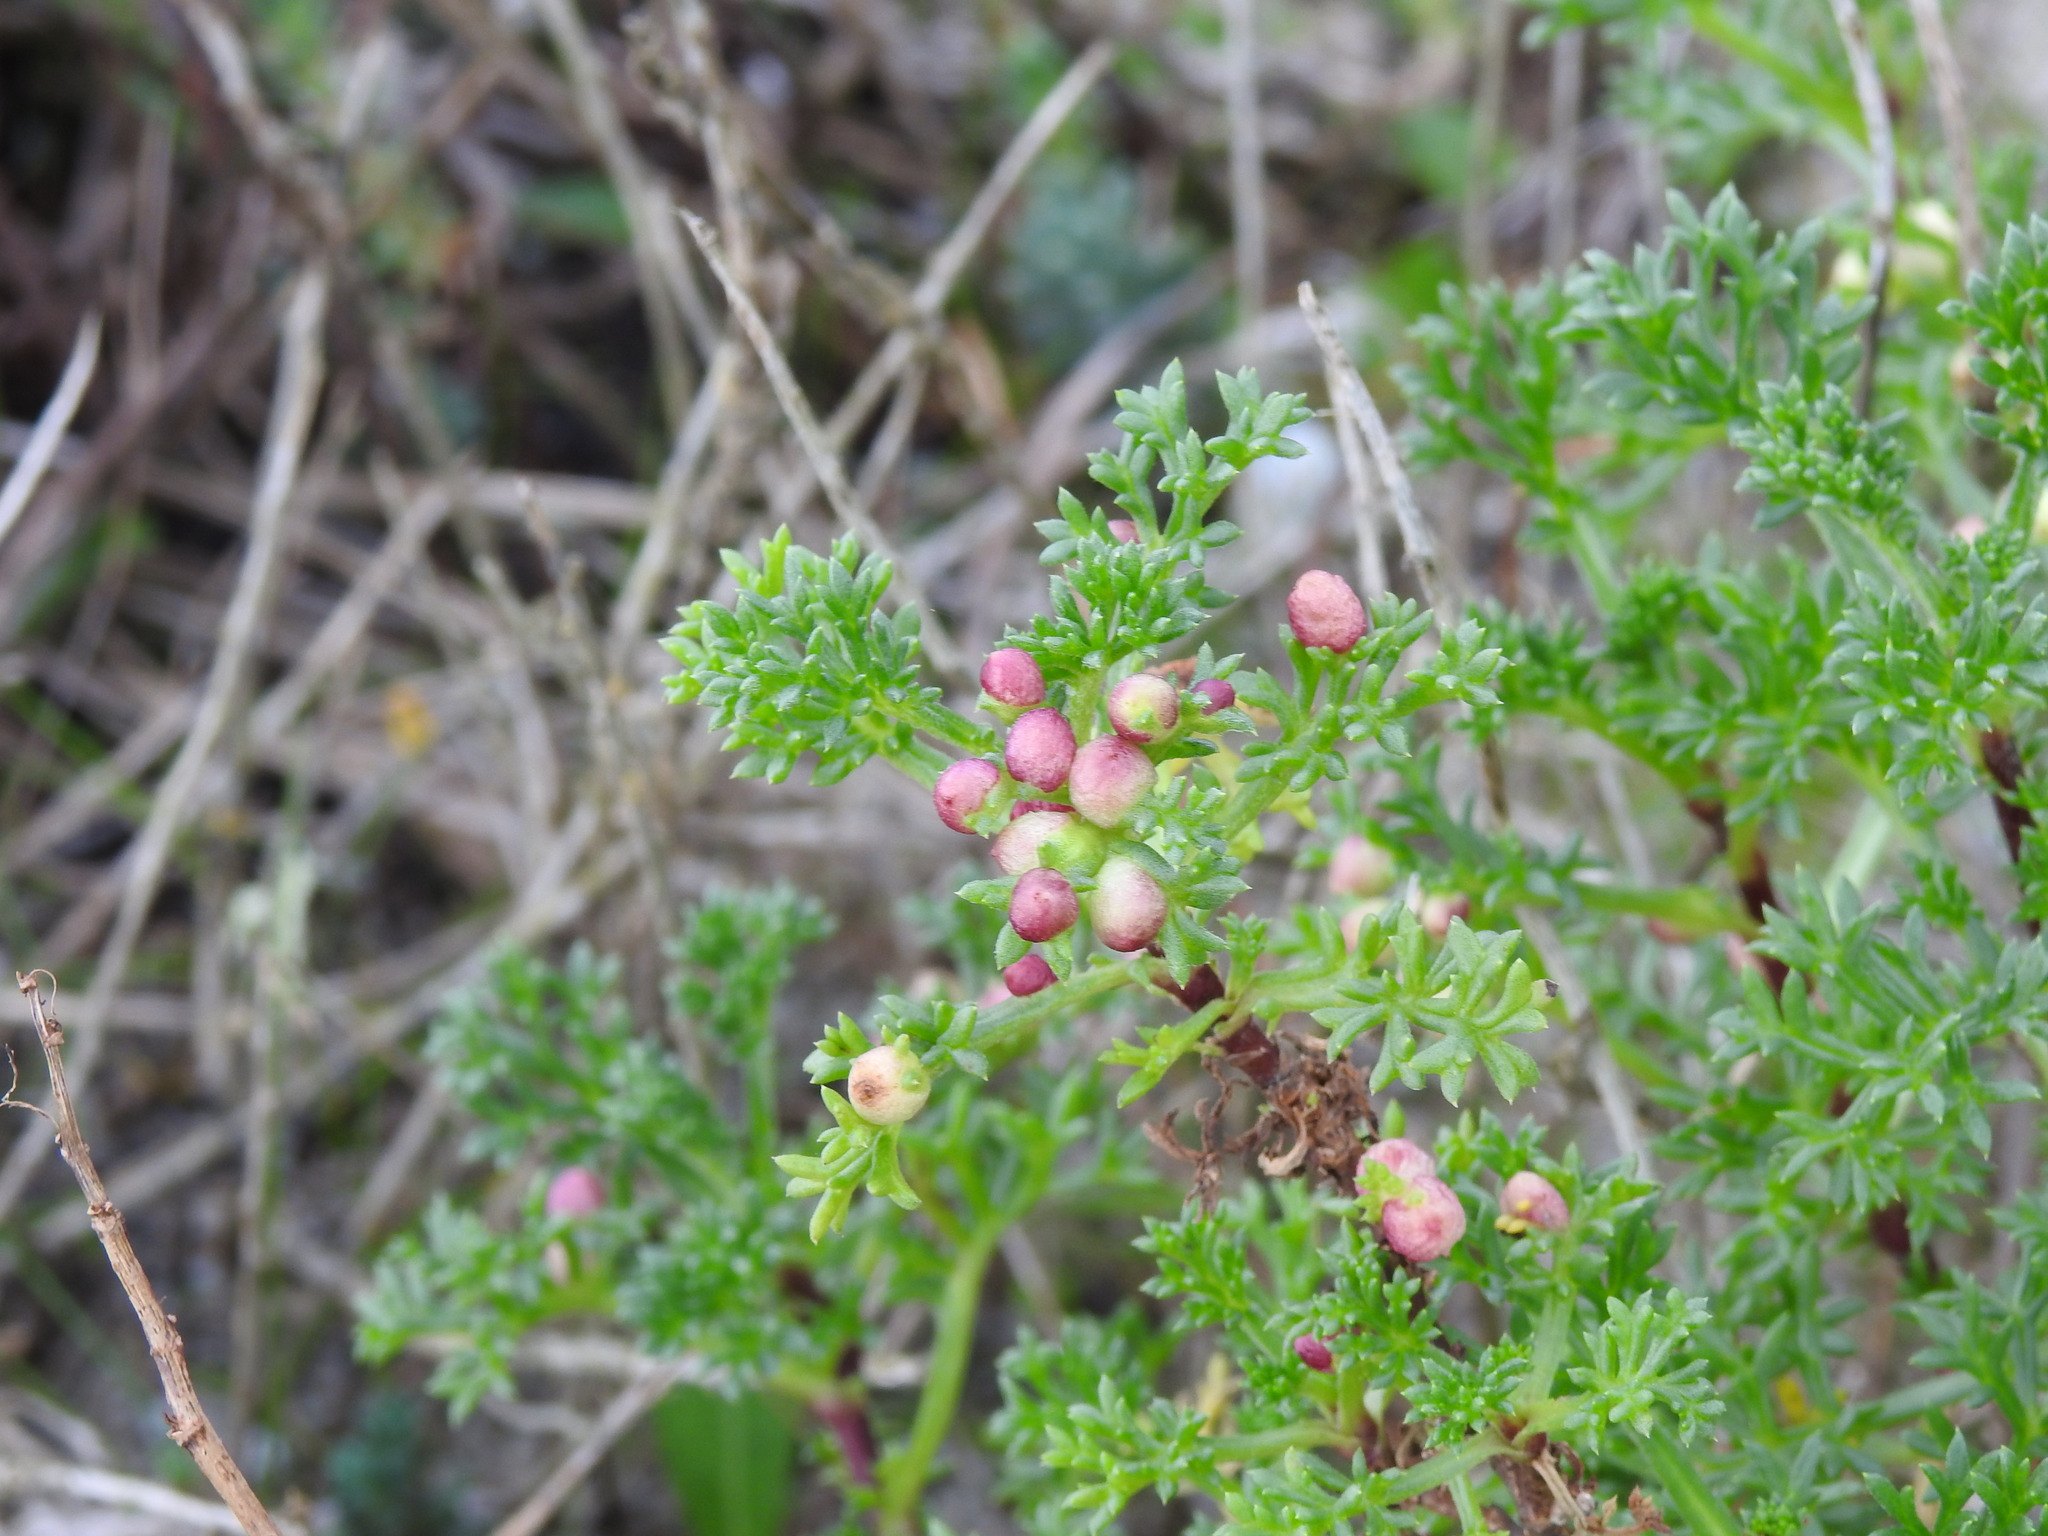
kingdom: Animalia
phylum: Arthropoda
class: Insecta
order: Diptera
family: Cecidomyiidae
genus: Rhopalomyia
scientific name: Rhopalomyia baccarum
